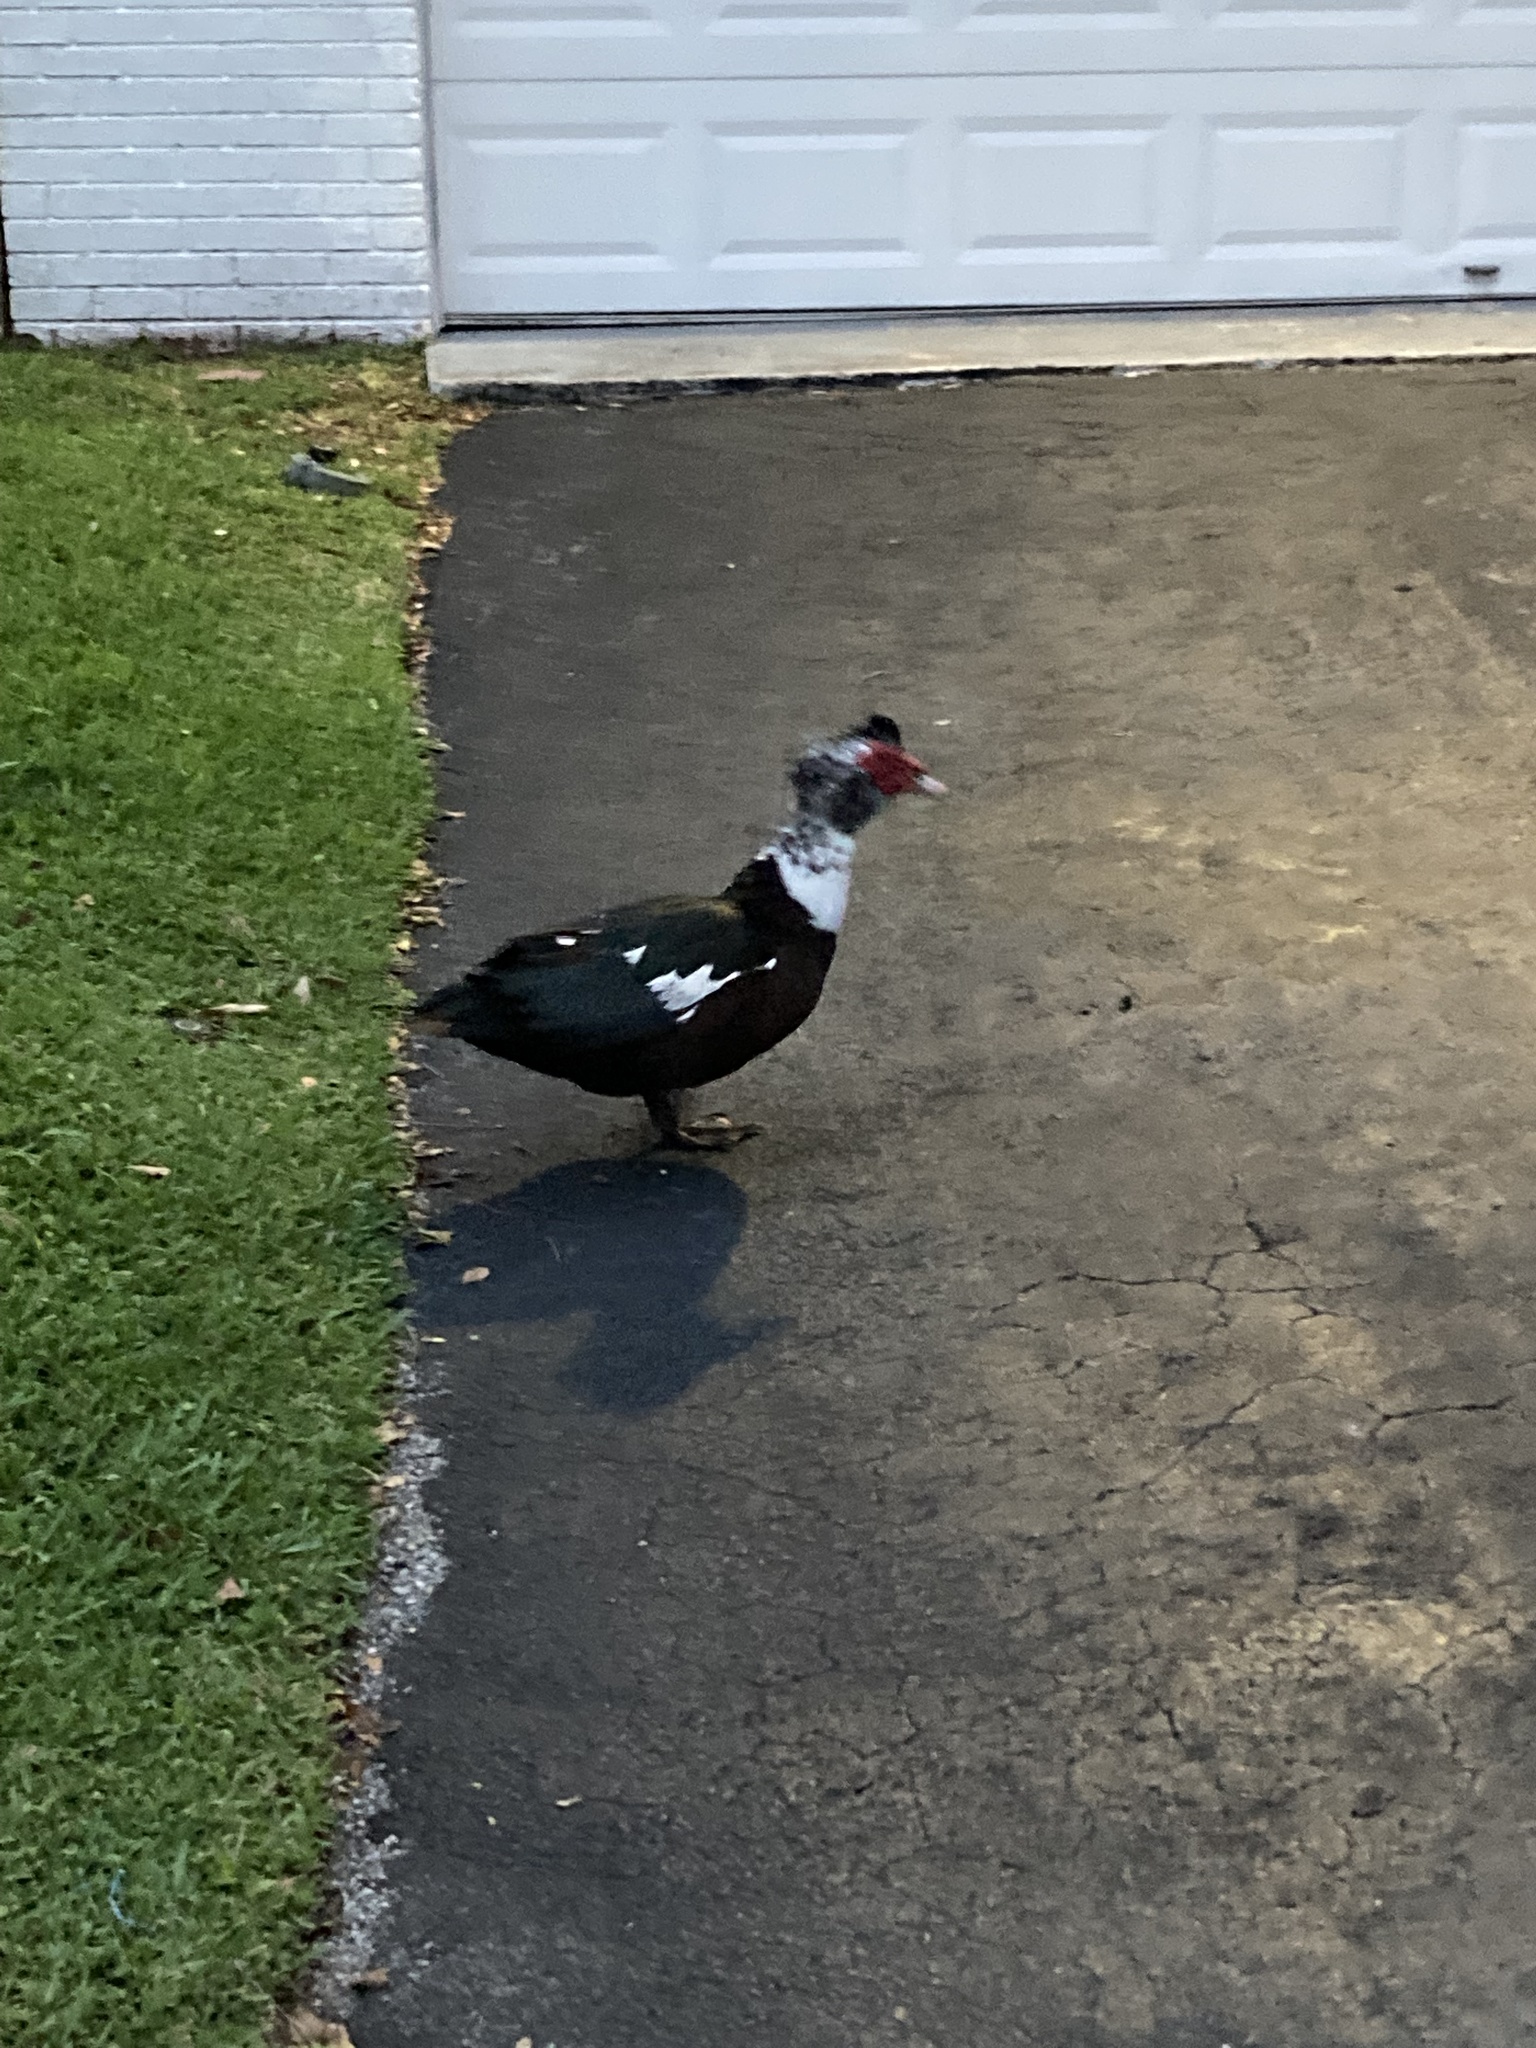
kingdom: Animalia
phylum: Chordata
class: Aves
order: Anseriformes
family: Anatidae
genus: Cairina
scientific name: Cairina moschata
